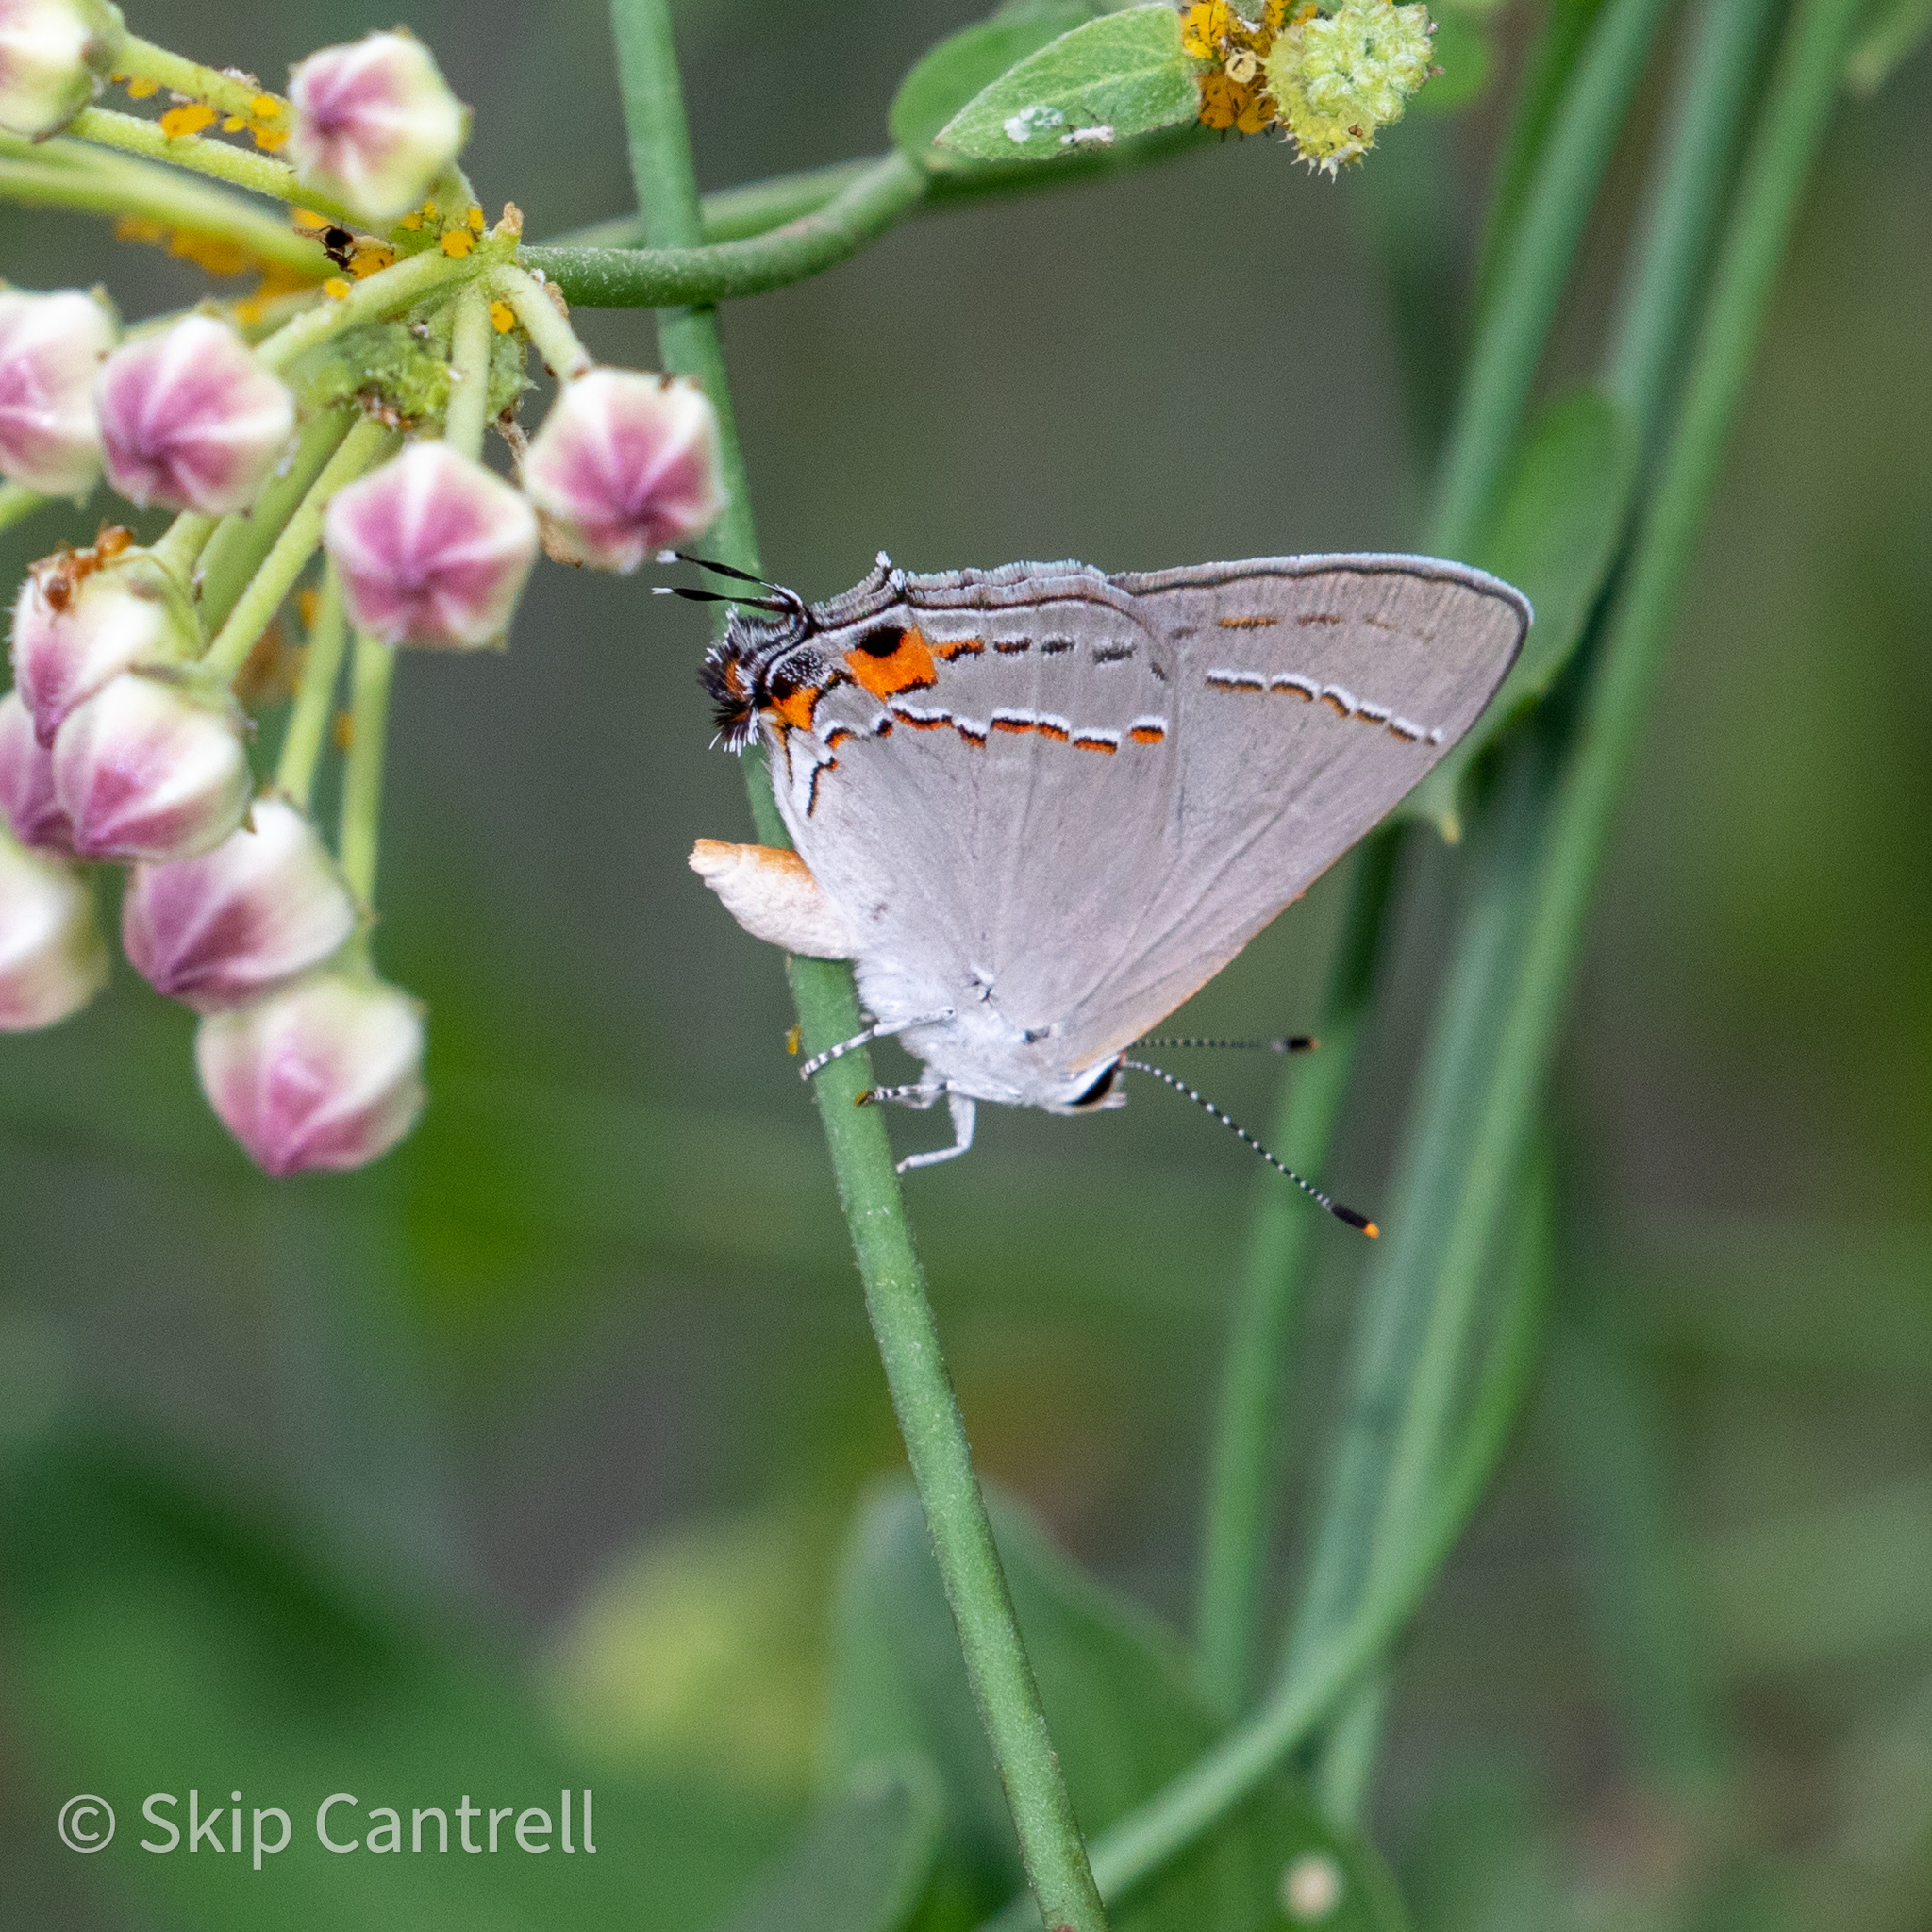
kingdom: Animalia
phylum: Arthropoda
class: Insecta
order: Lepidoptera
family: Lycaenidae
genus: Strymon
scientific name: Strymon melinus
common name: Gray hairstreak
